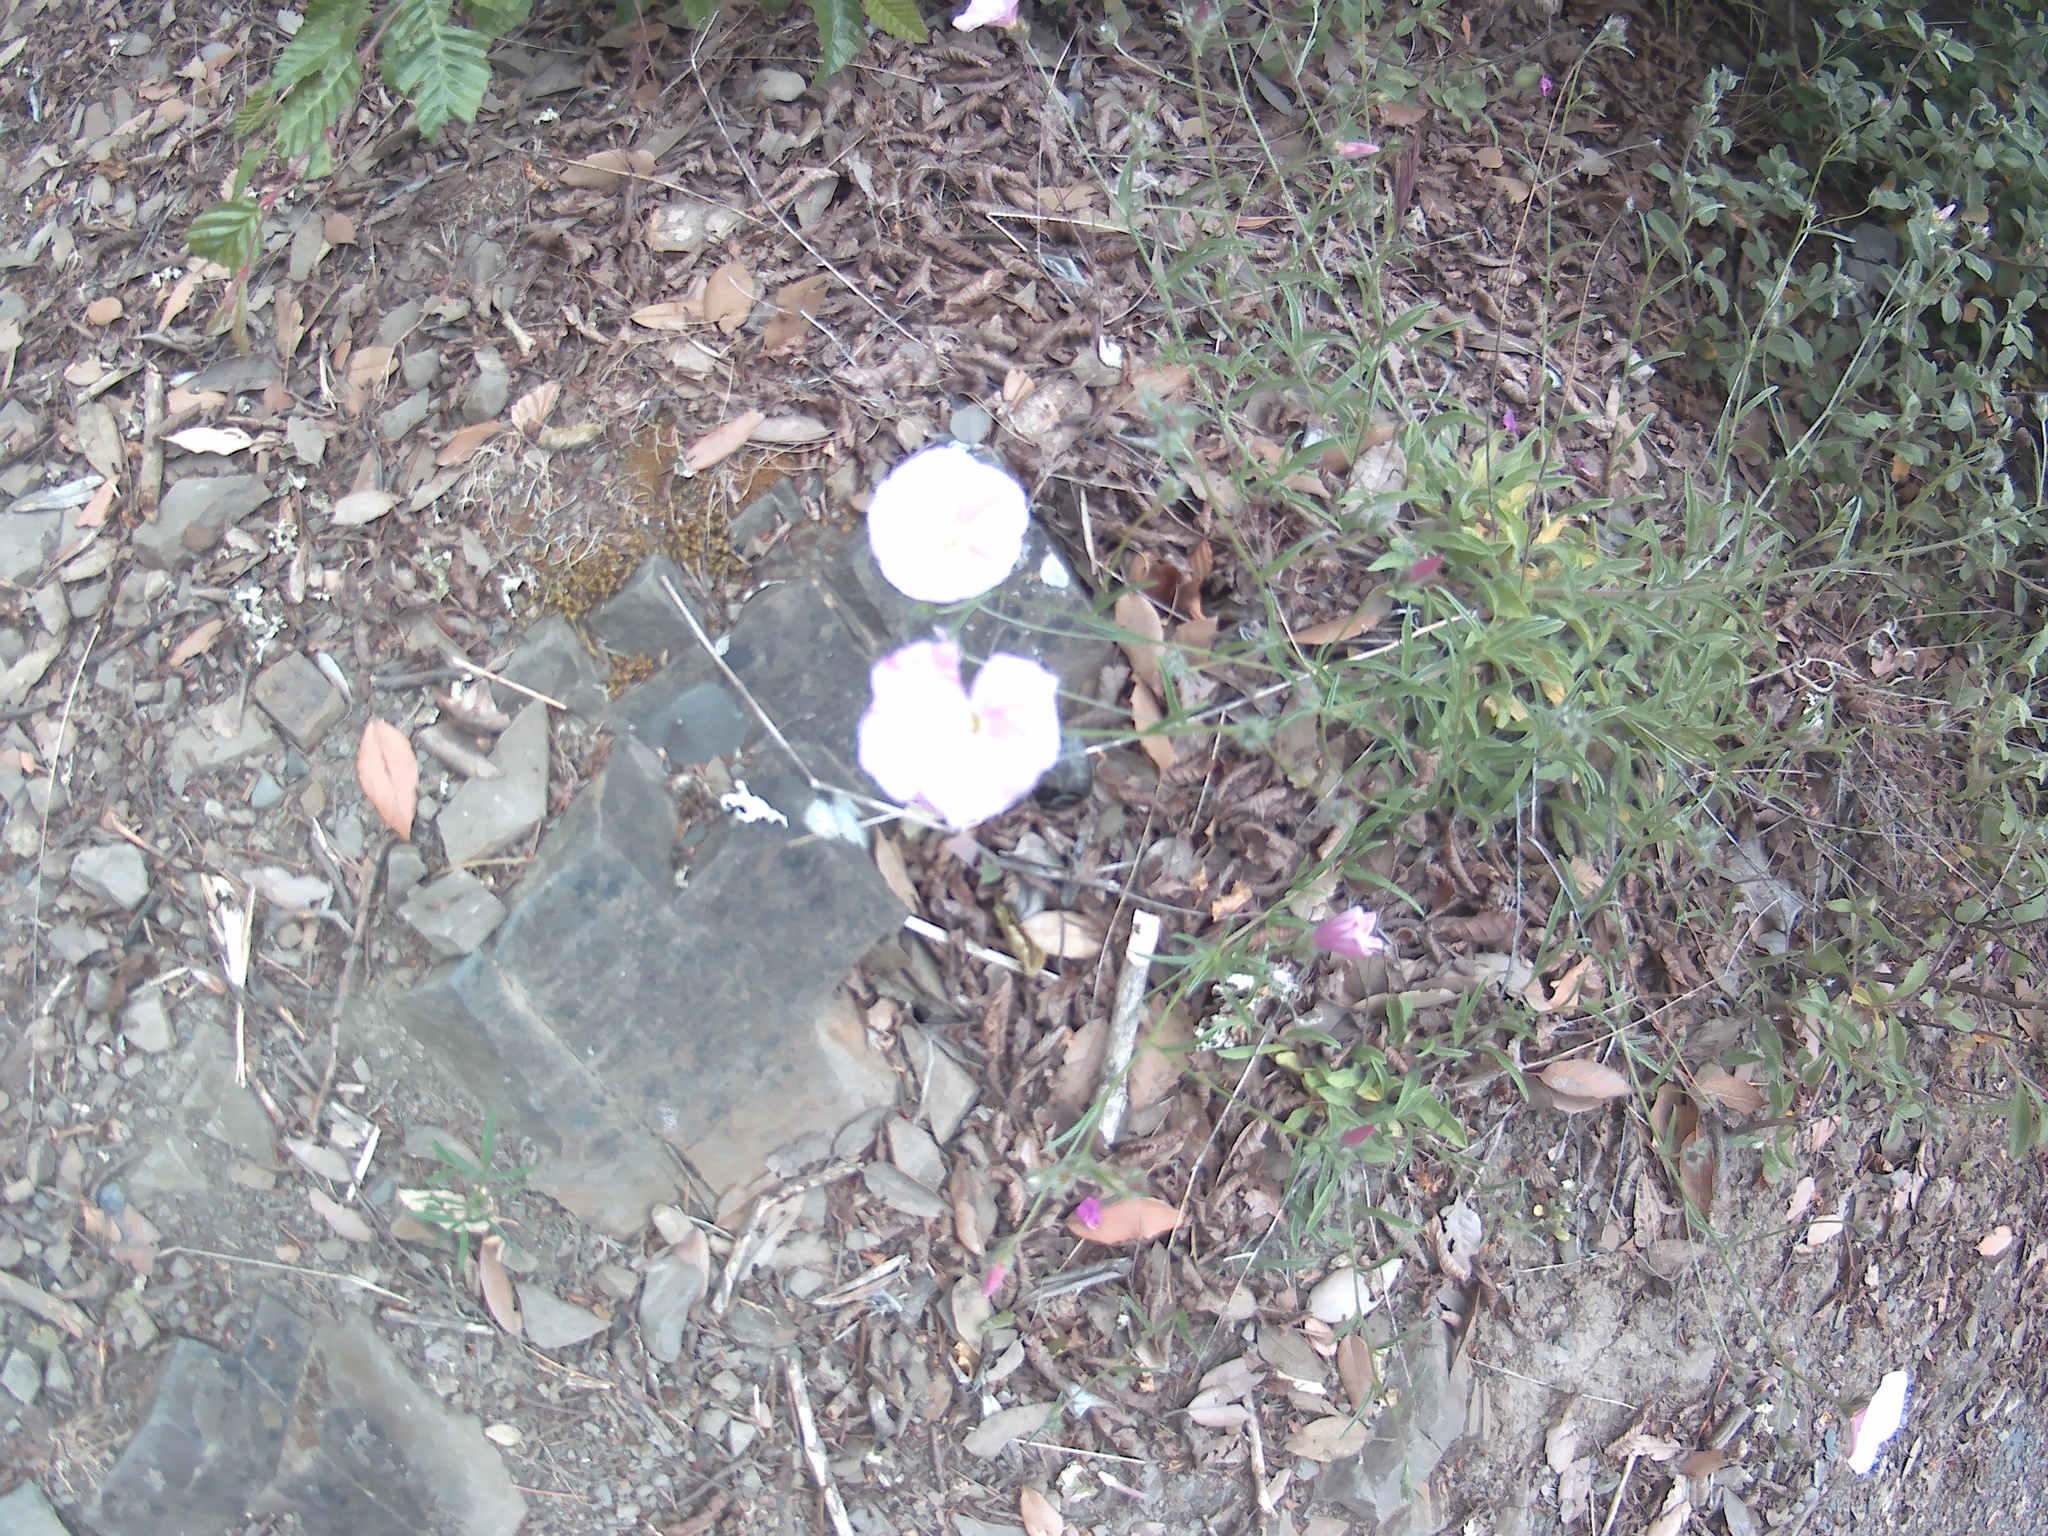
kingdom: Plantae
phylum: Tracheophyta
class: Magnoliopsida
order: Solanales
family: Convolvulaceae
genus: Convolvulus
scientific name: Convolvulus cantabrica
